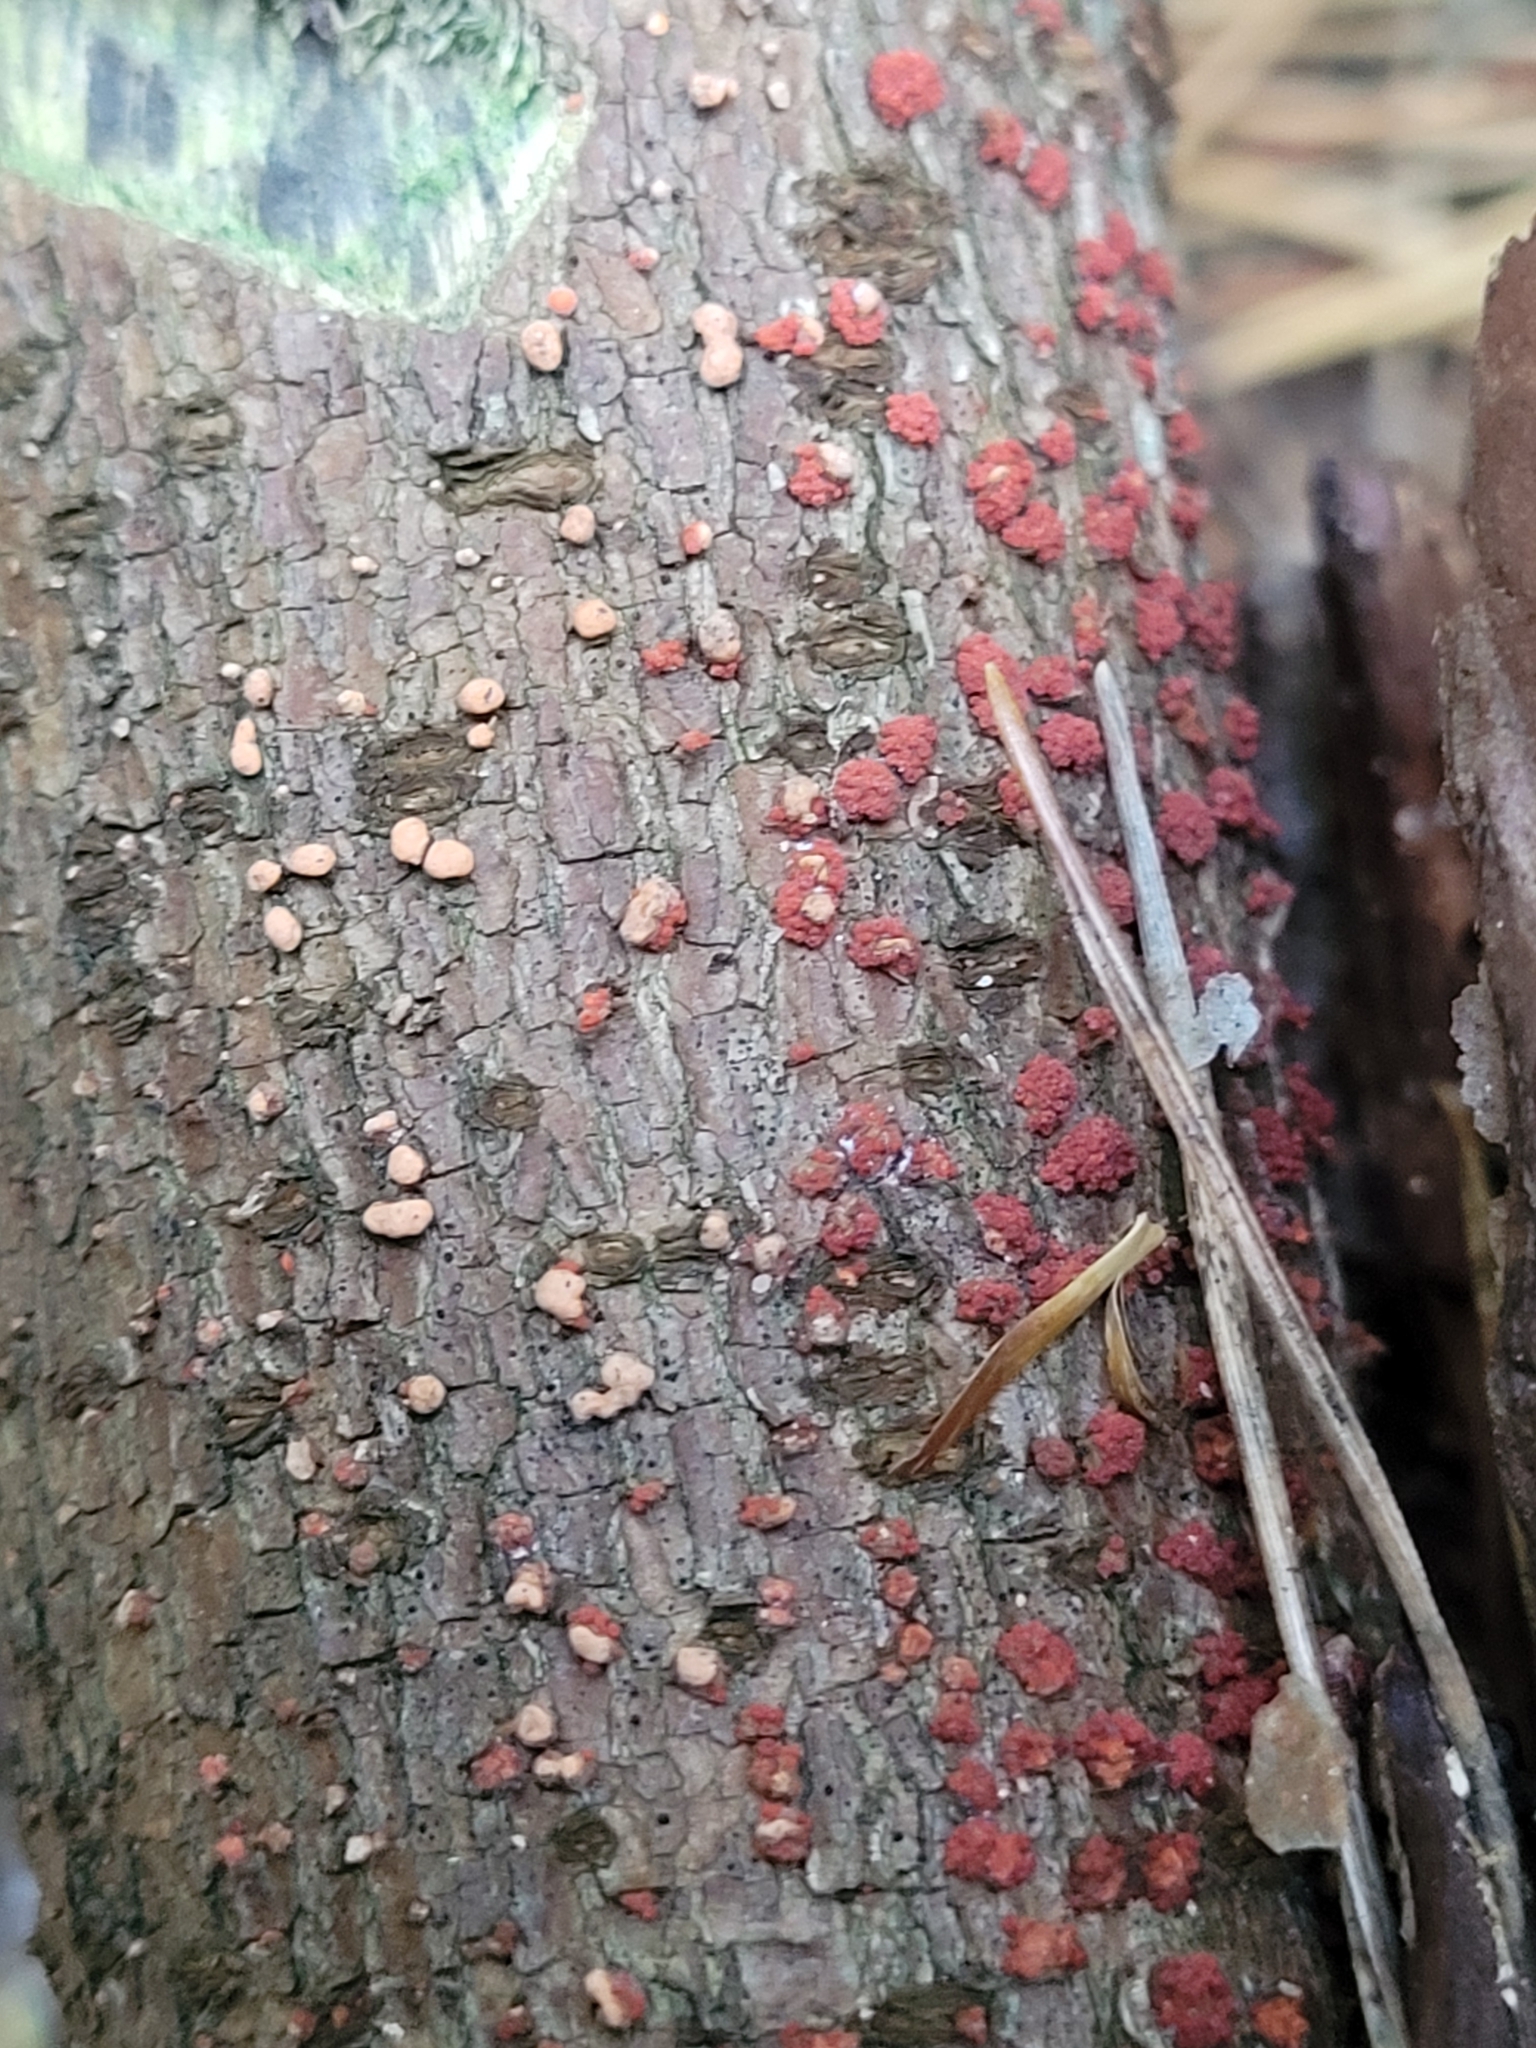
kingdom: Fungi
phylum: Ascomycota
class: Sordariomycetes
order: Hypocreales
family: Nectriaceae
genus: Nectria
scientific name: Nectria cinnabarina
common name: Coral spot
